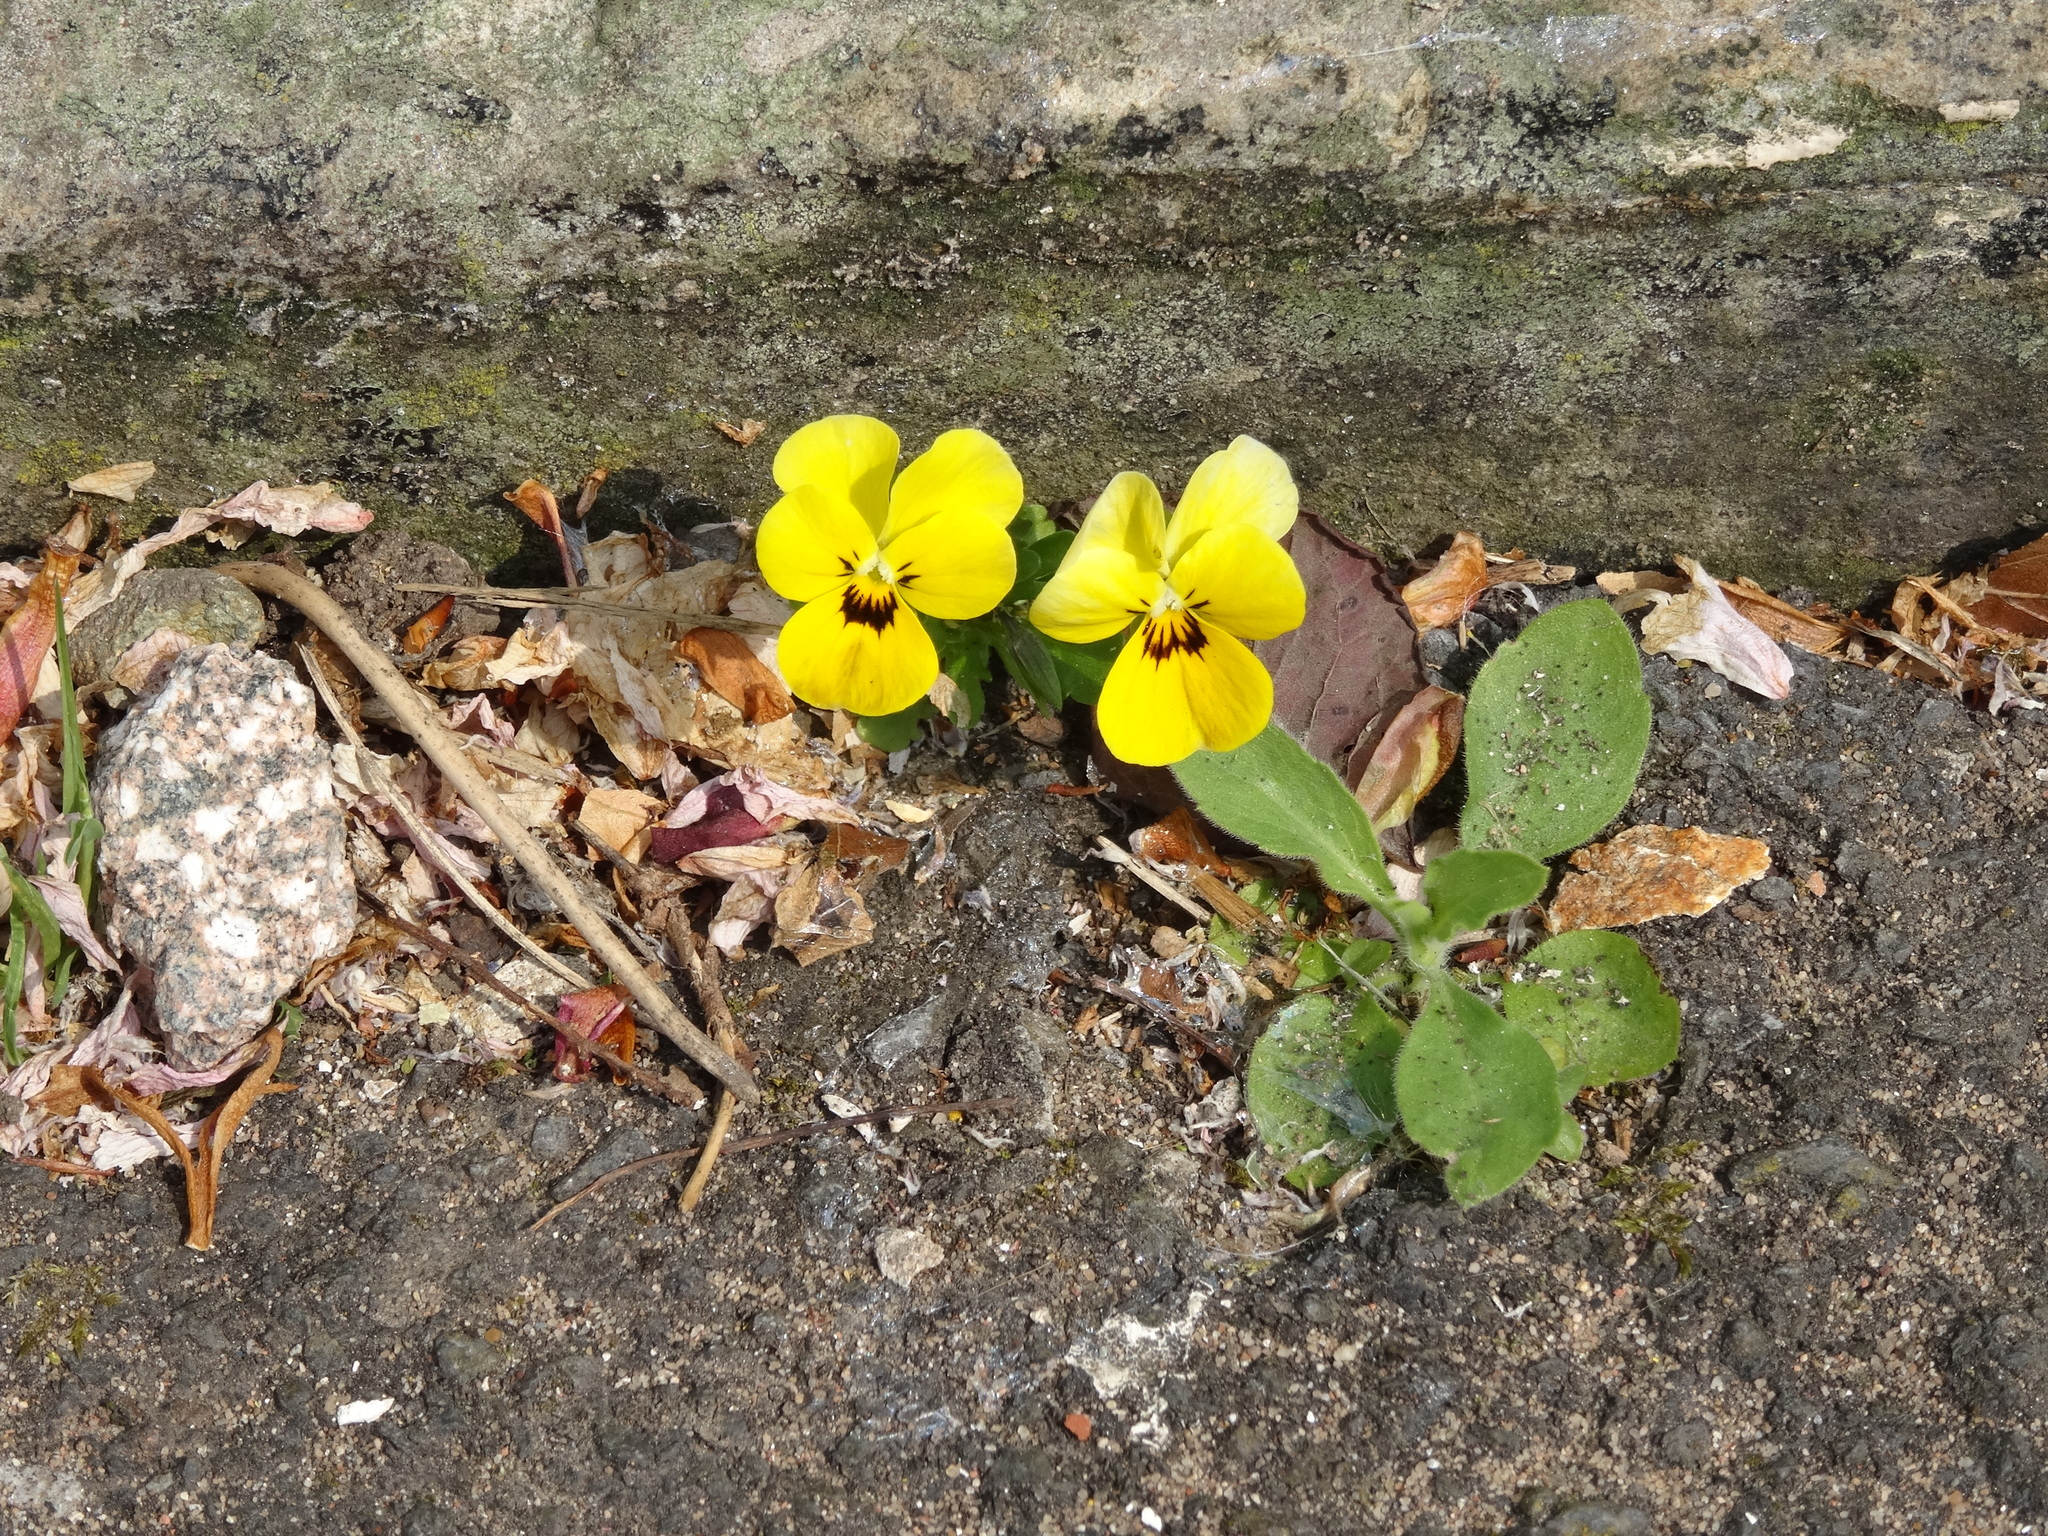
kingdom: Plantae
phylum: Tracheophyta
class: Magnoliopsida
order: Malpighiales
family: Violaceae
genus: Viola
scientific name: Viola wittrockiana
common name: Garden pansy
